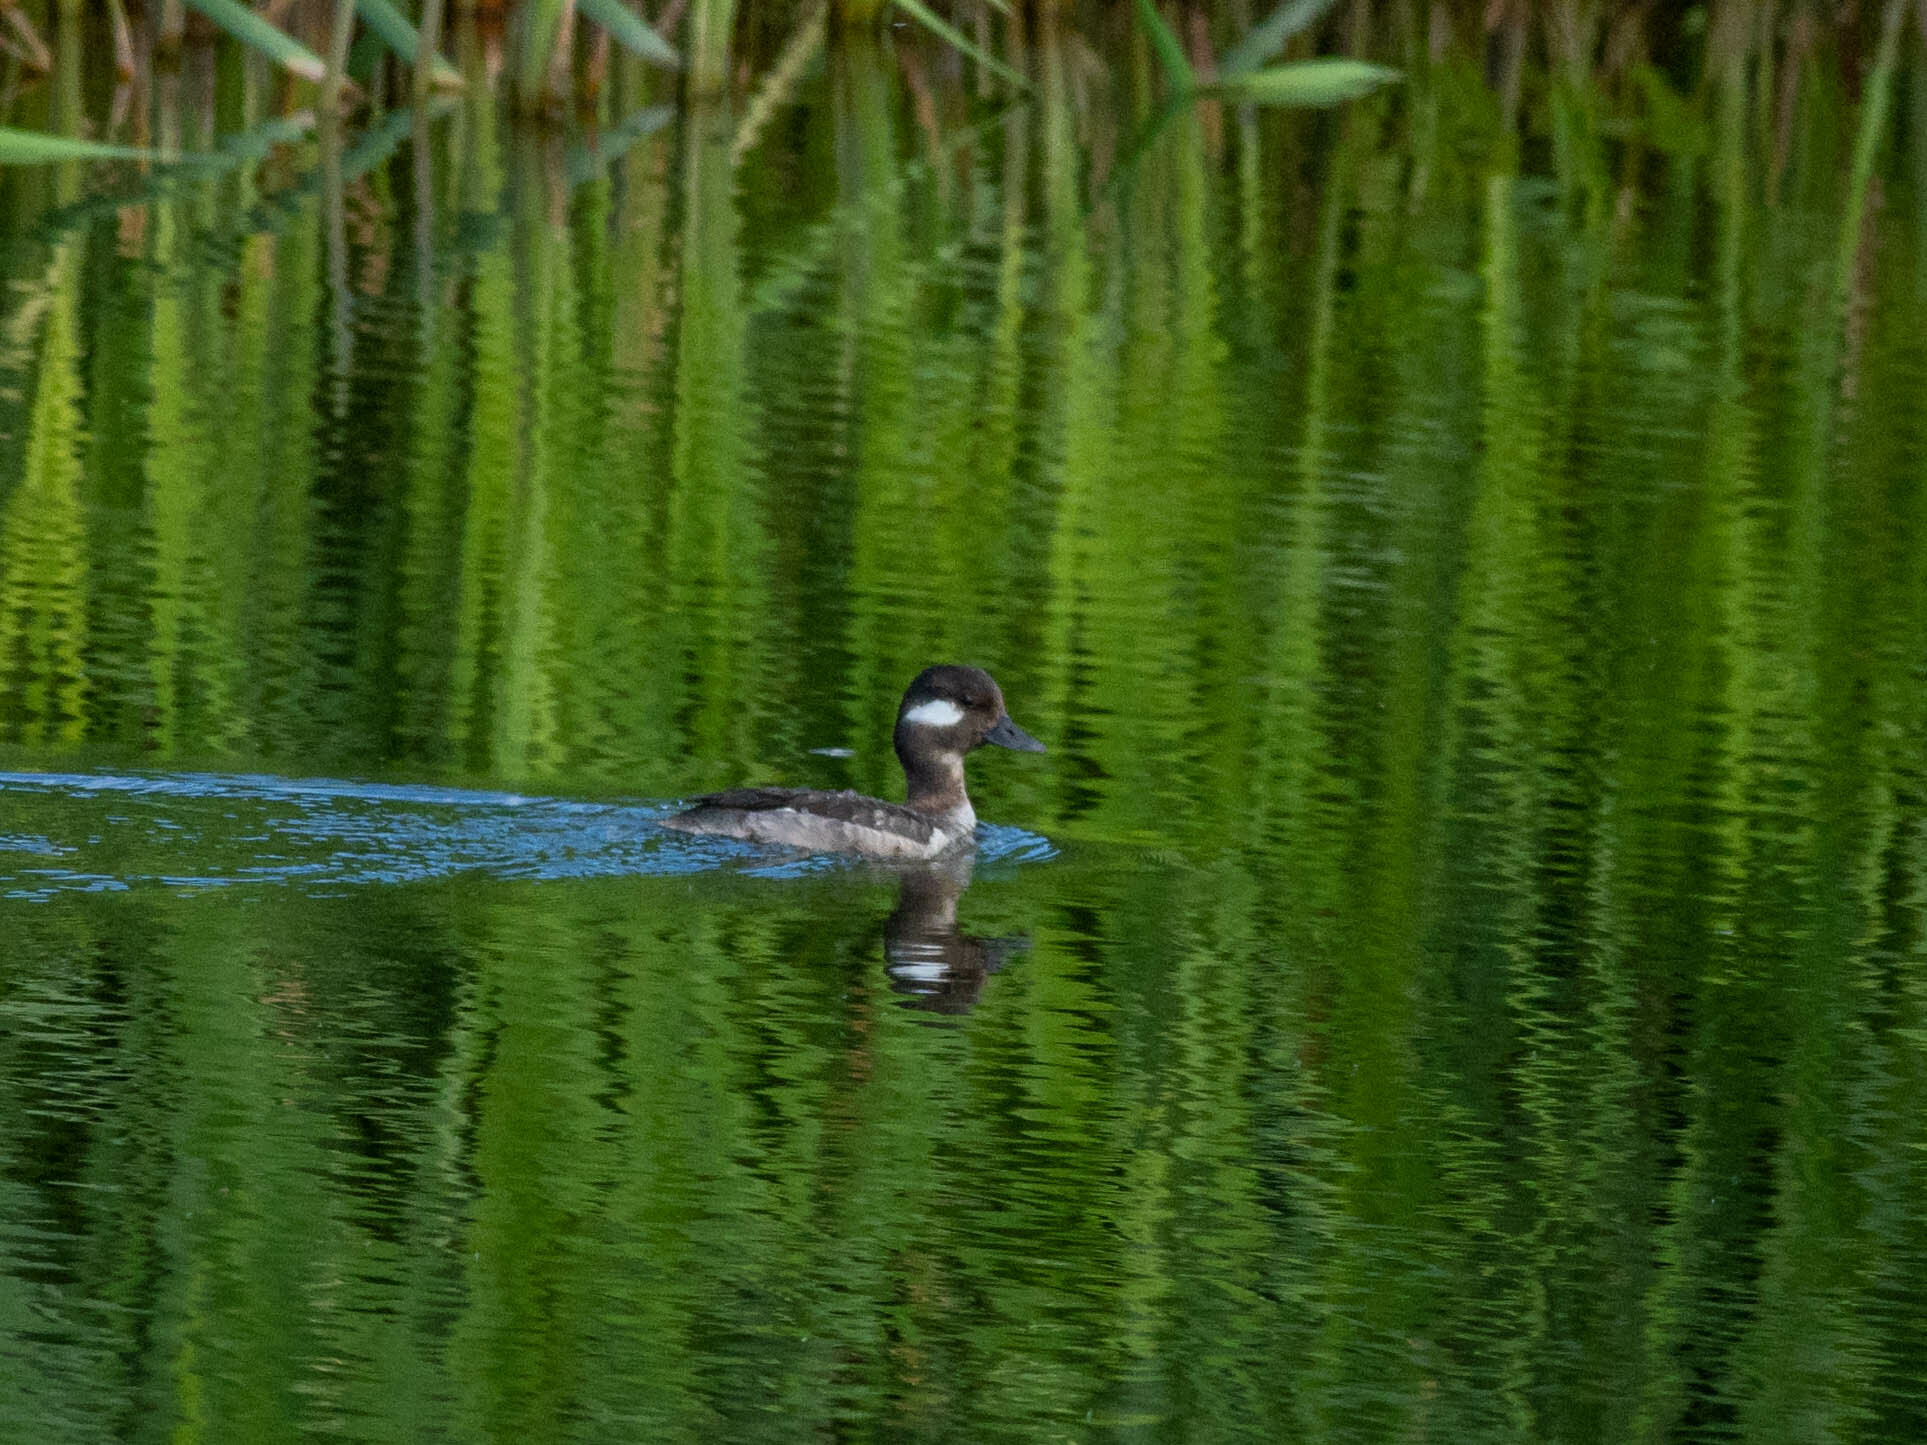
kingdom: Animalia
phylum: Chordata
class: Aves
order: Anseriformes
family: Anatidae
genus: Bucephala
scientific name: Bucephala albeola
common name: Bufflehead
